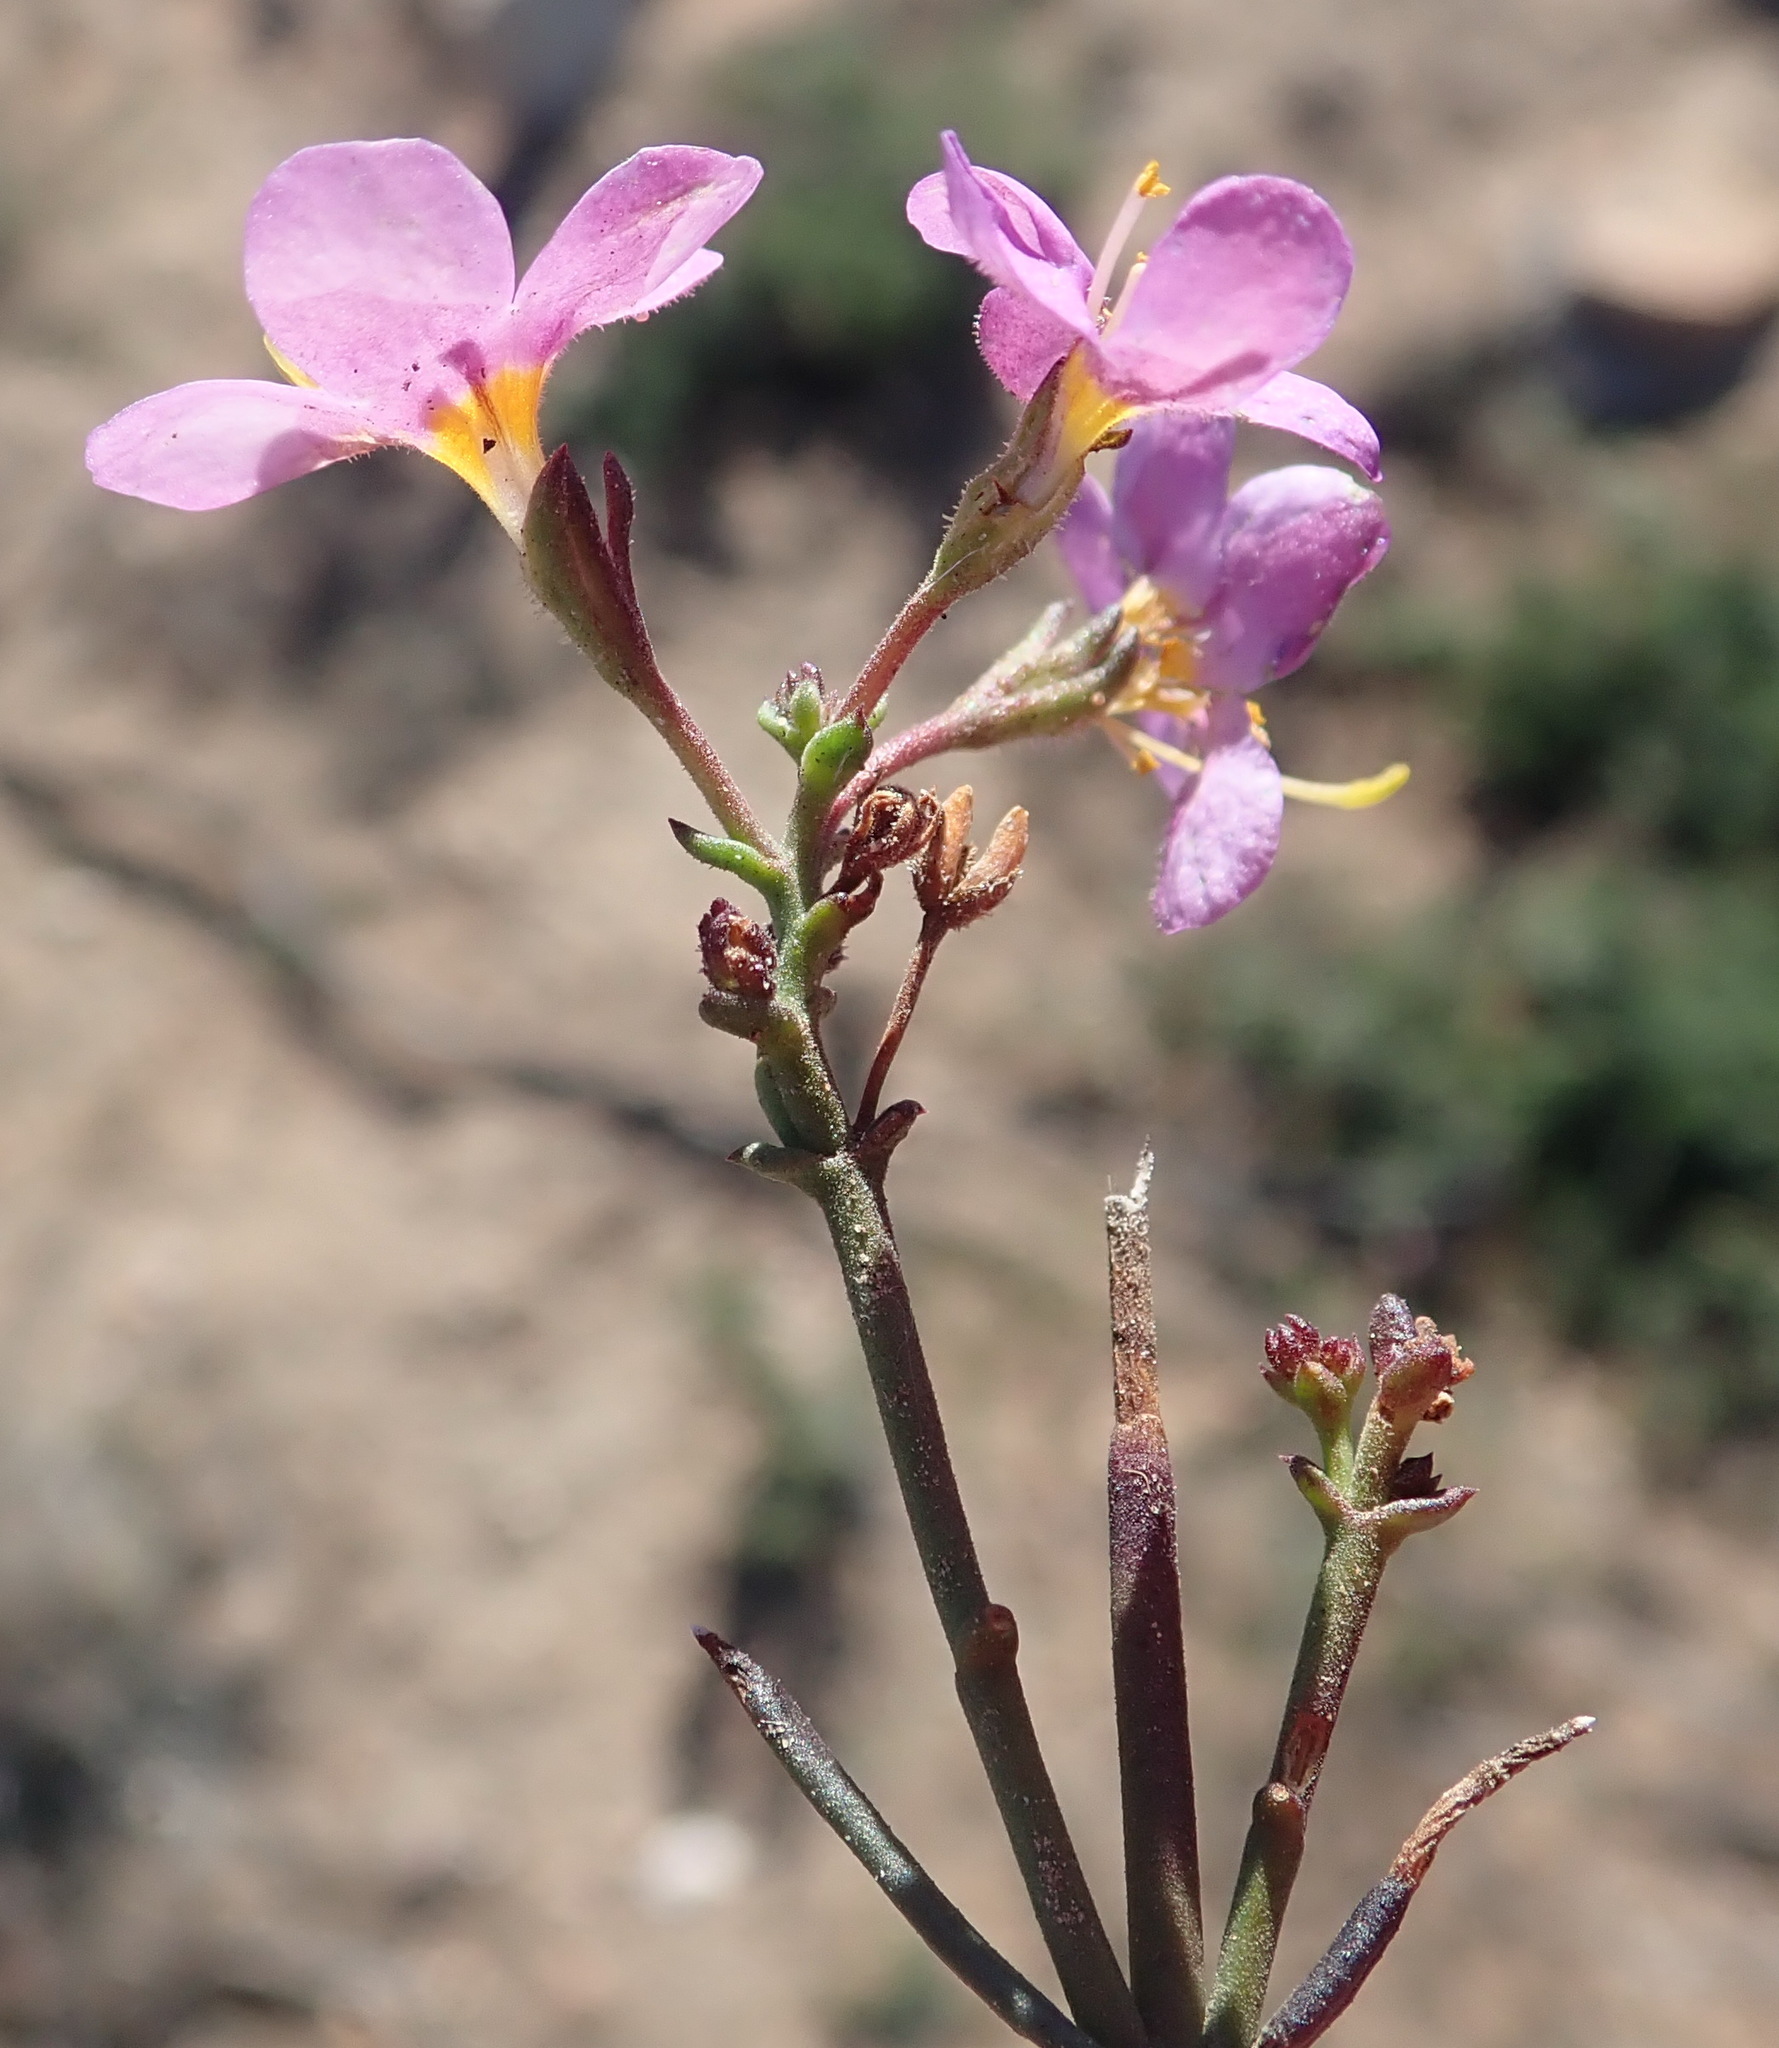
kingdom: Plantae
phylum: Tracheophyta
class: Magnoliopsida
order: Lamiales
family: Scrophulariaceae
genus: Chaenostoma
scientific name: Chaenostoma violaceum
